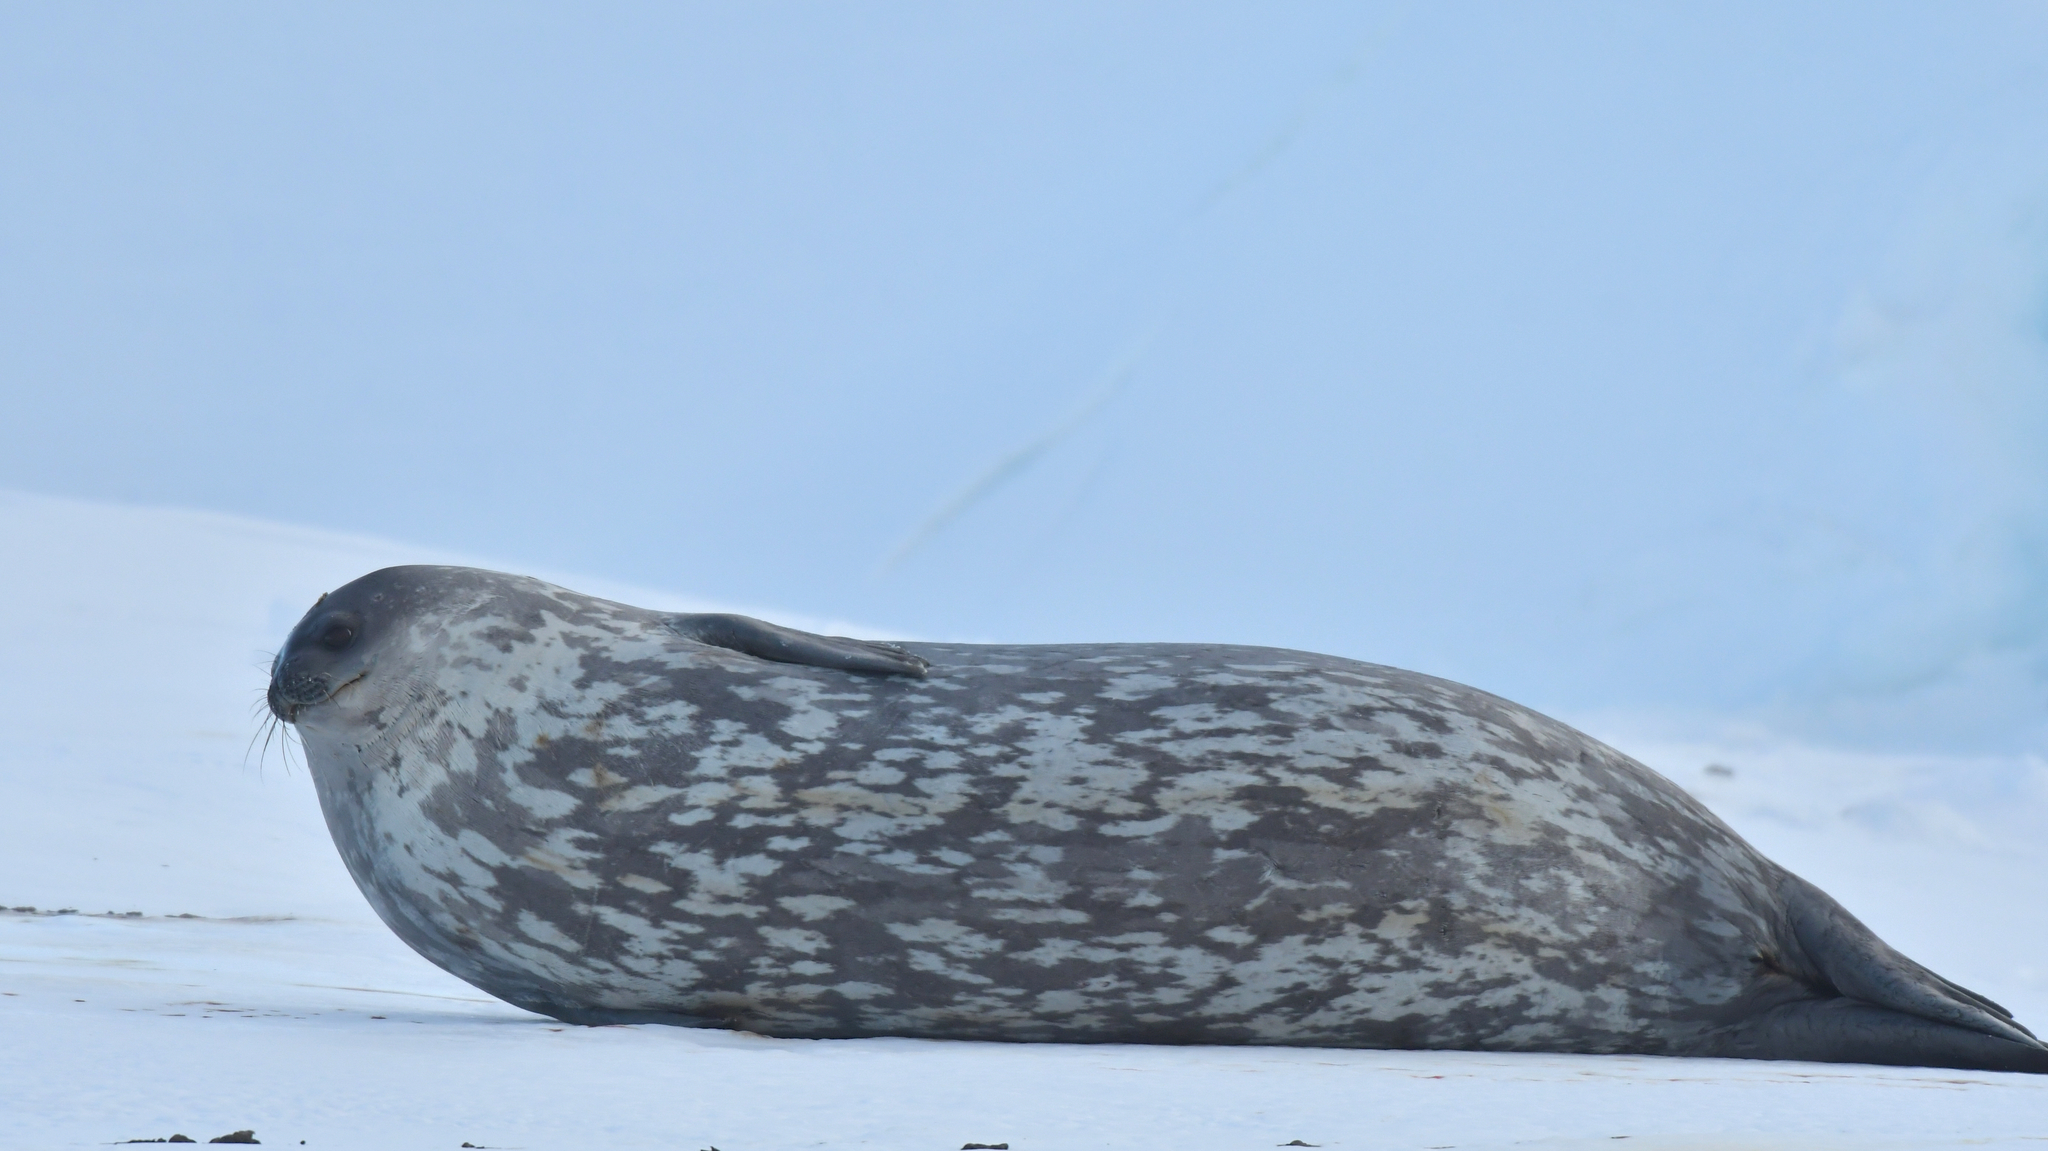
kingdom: Animalia
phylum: Chordata
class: Mammalia
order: Carnivora
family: Phocidae
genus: Leptonychotes
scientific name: Leptonychotes weddellii
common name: Weddell seal
